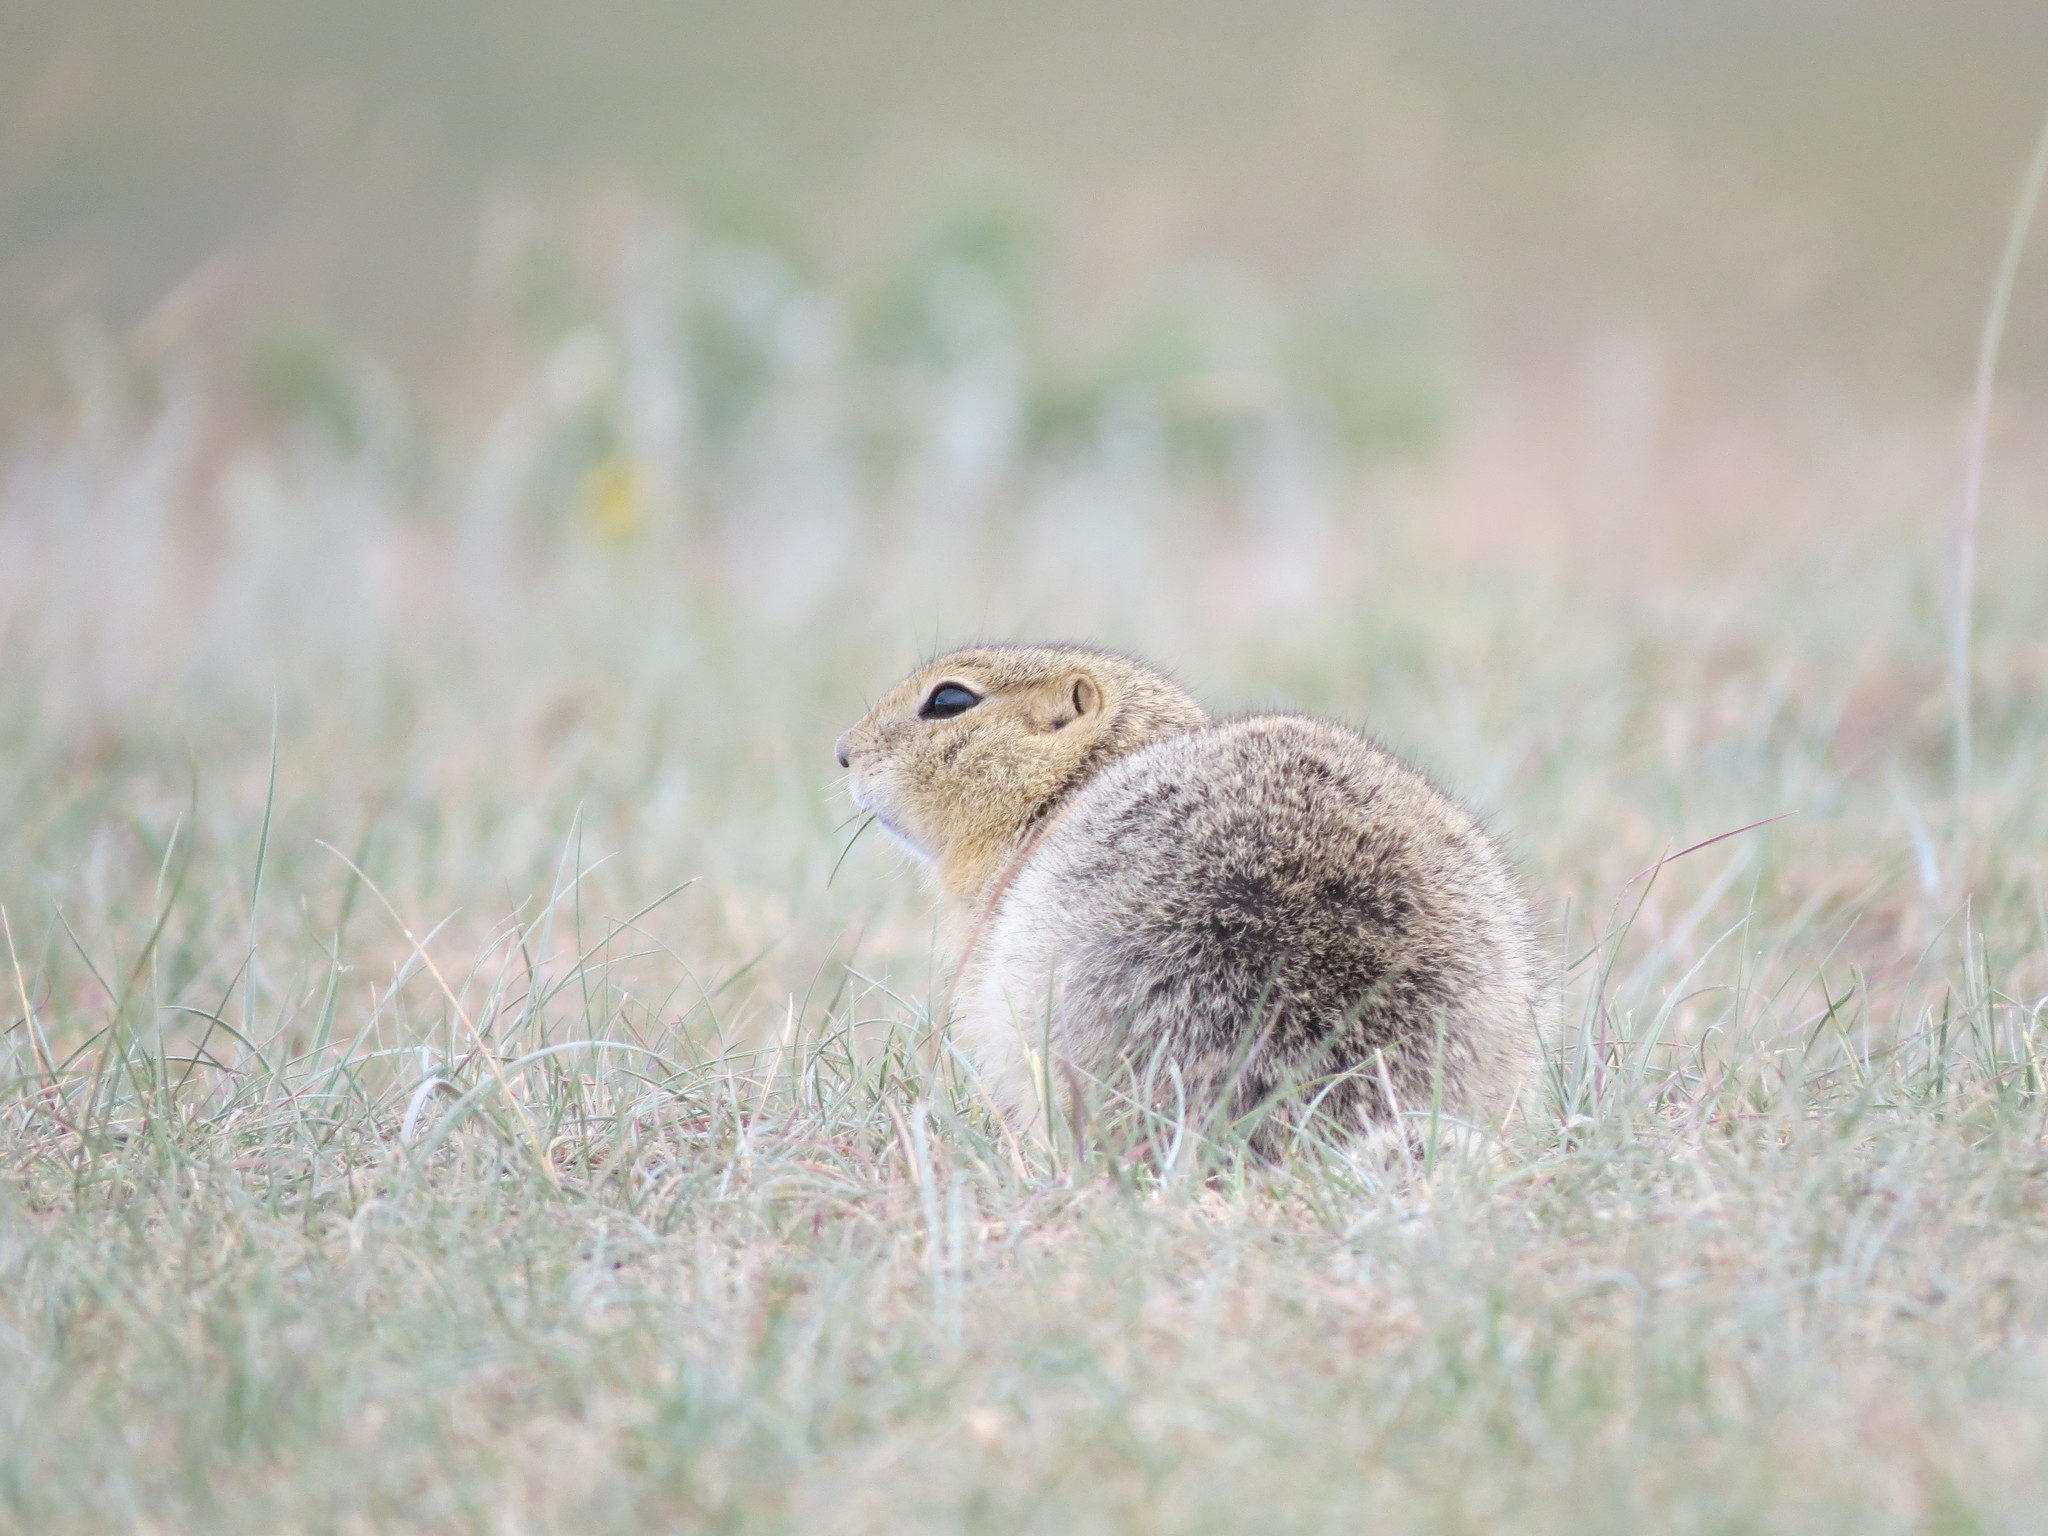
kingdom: Animalia
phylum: Chordata
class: Mammalia
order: Rodentia
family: Sciuridae
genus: Urocitellus
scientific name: Urocitellus richardsonii
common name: Richardson's ground squirrel
